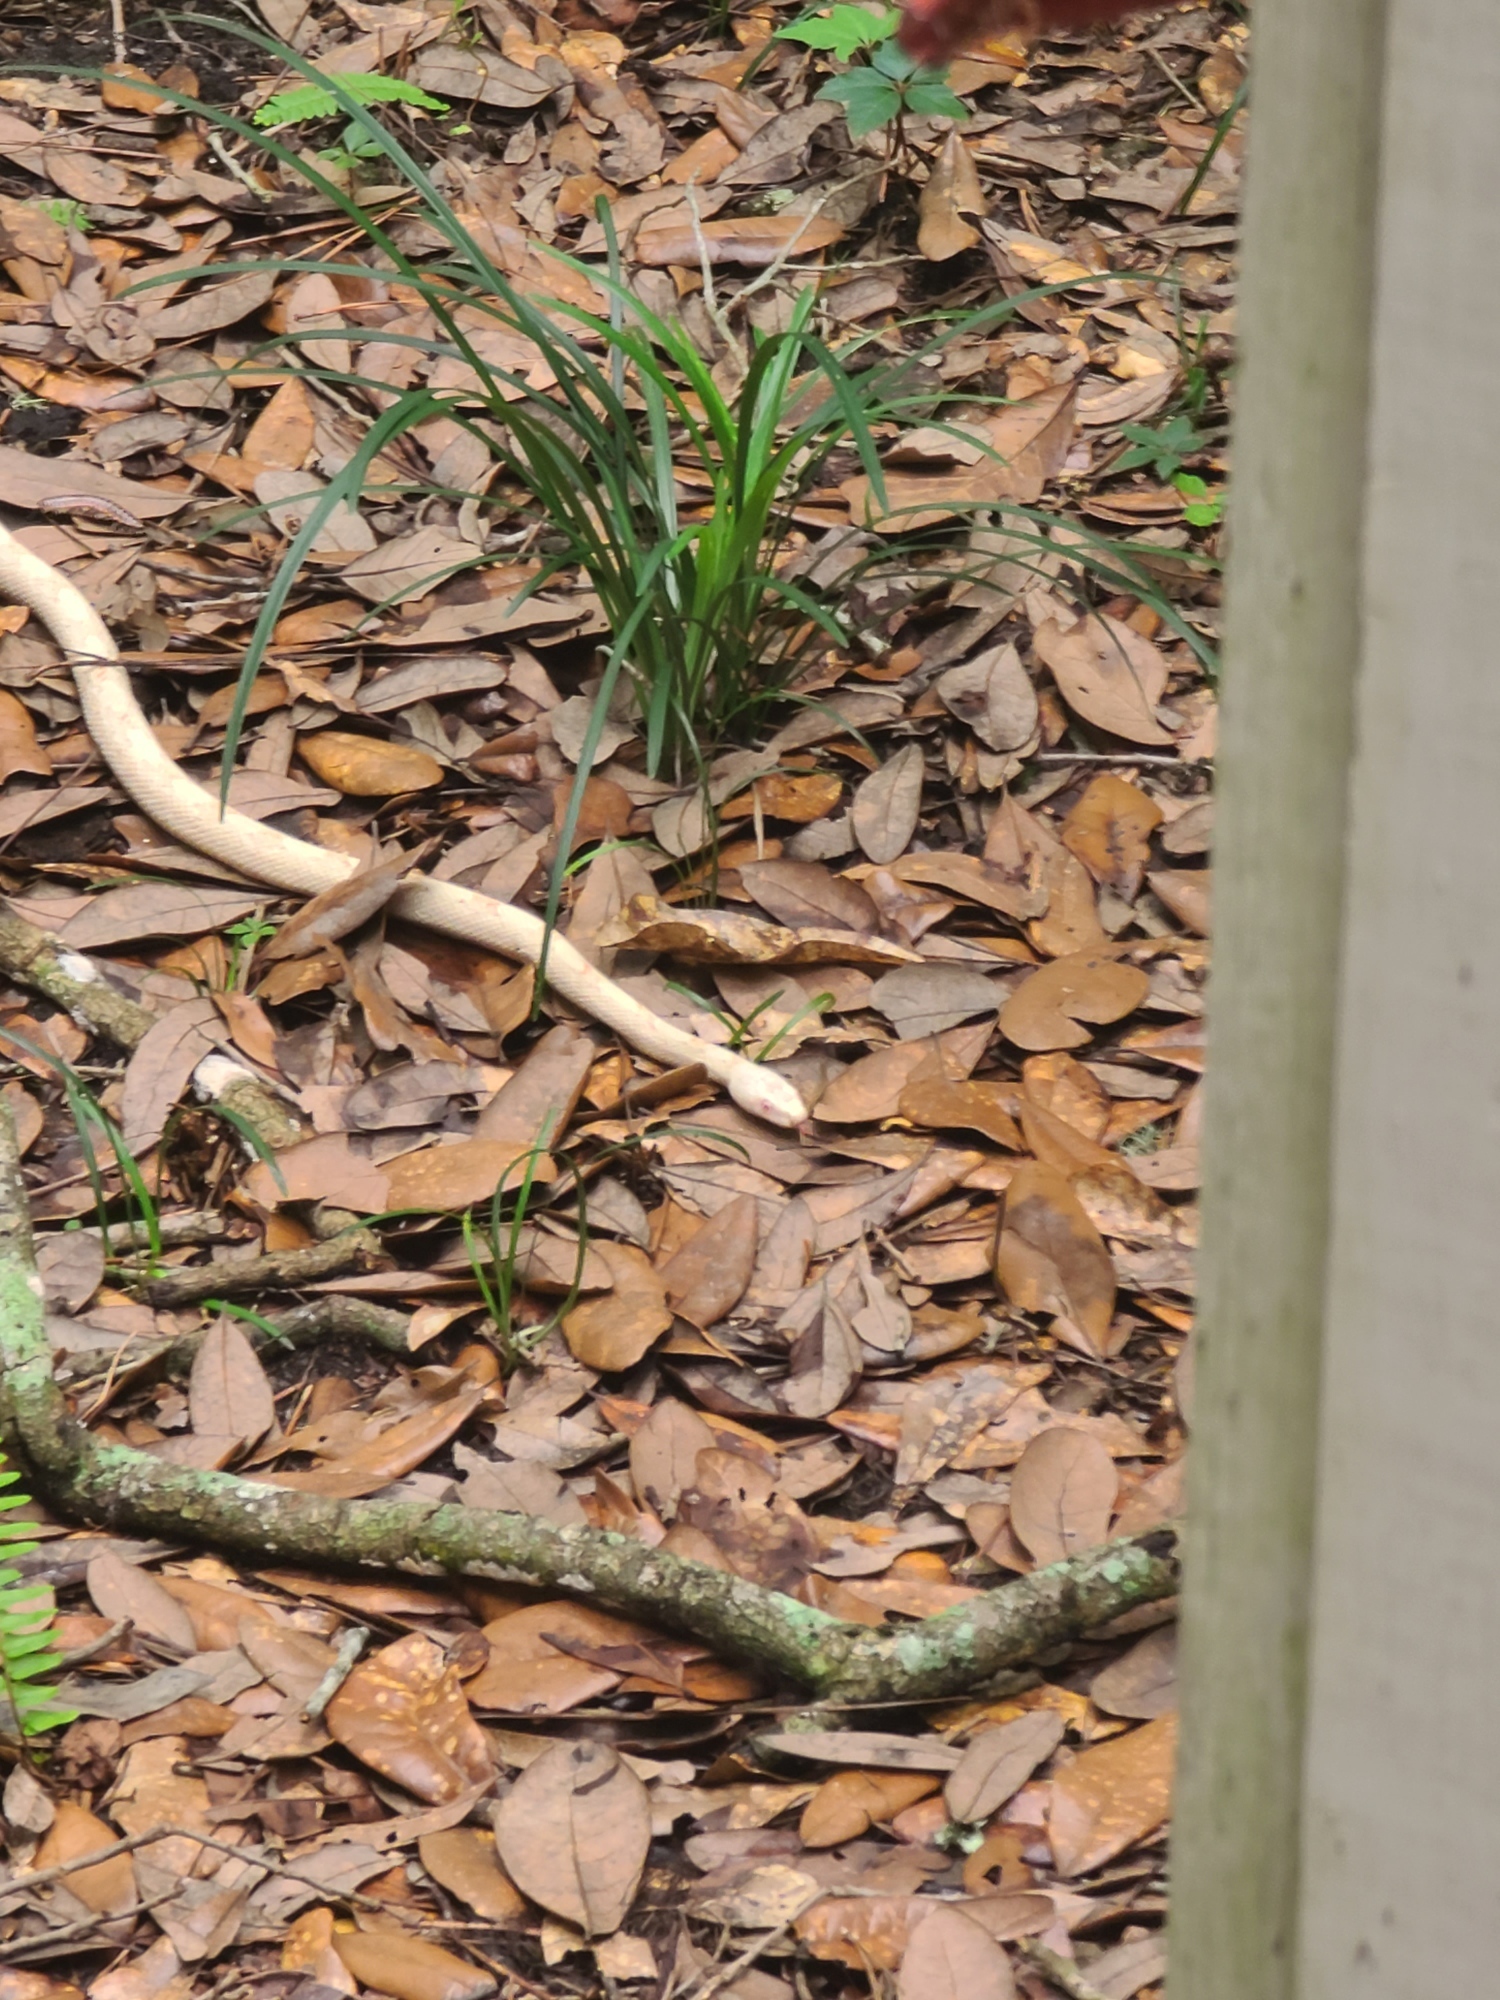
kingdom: Animalia
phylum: Chordata
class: Squamata
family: Colubridae
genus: Pantherophis
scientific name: Pantherophis spiloides
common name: Gray rat snake
